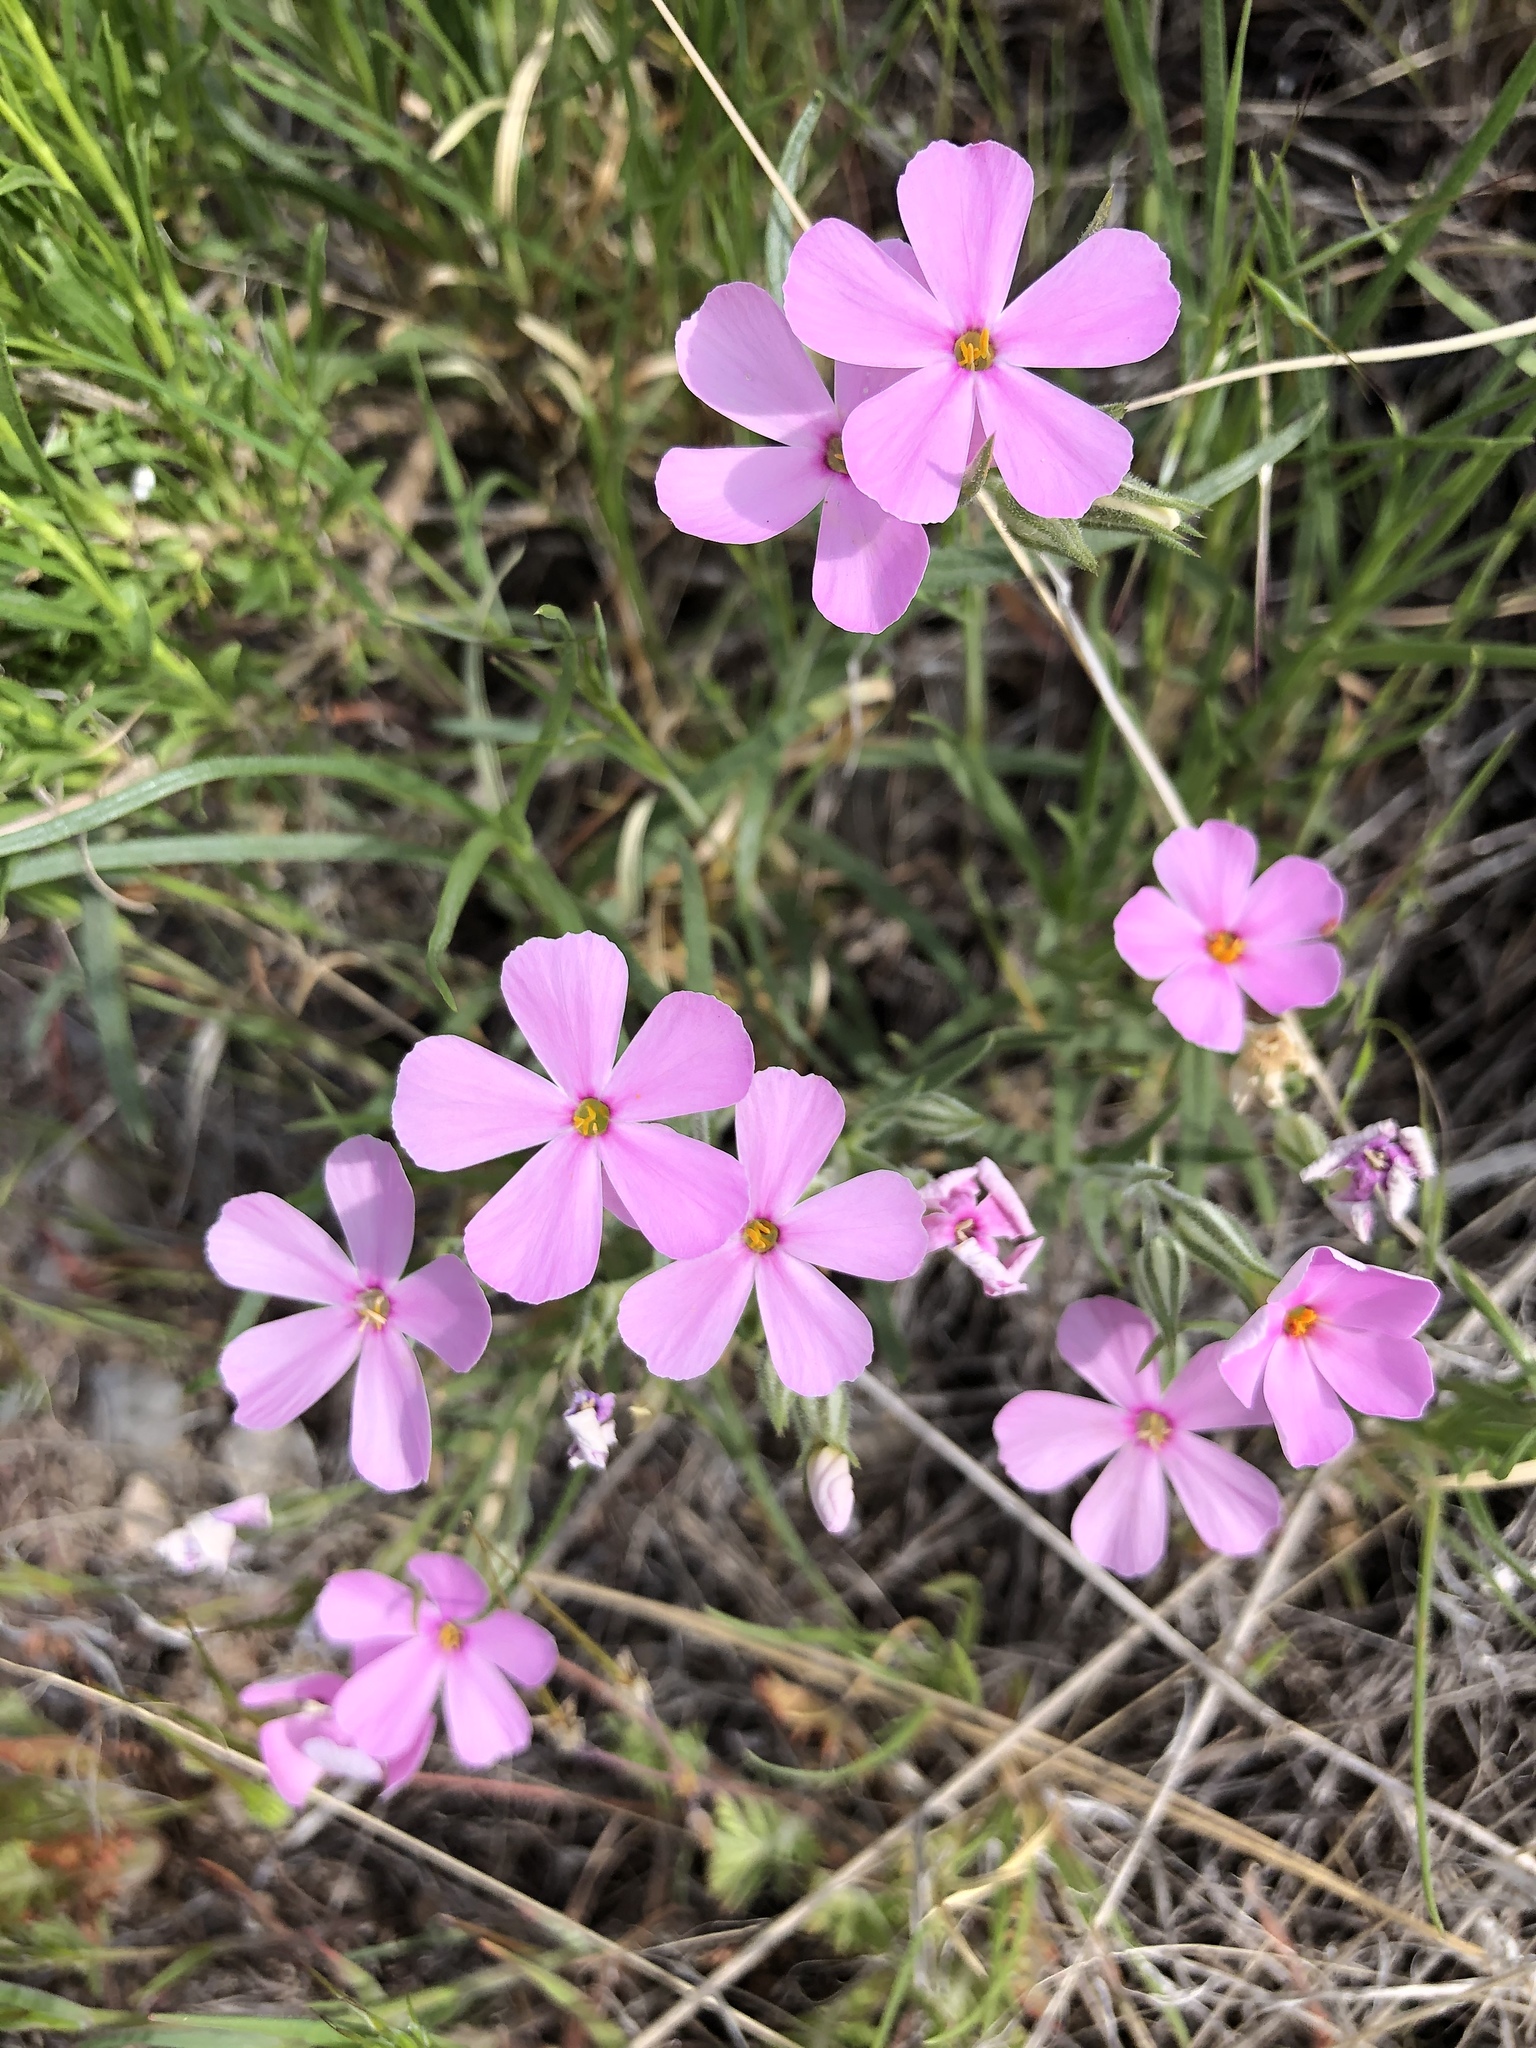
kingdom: Plantae
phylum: Tracheophyta
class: Magnoliopsida
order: Ericales
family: Polemoniaceae
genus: Phlox
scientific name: Phlox longifolia
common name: Longleaf phlox
